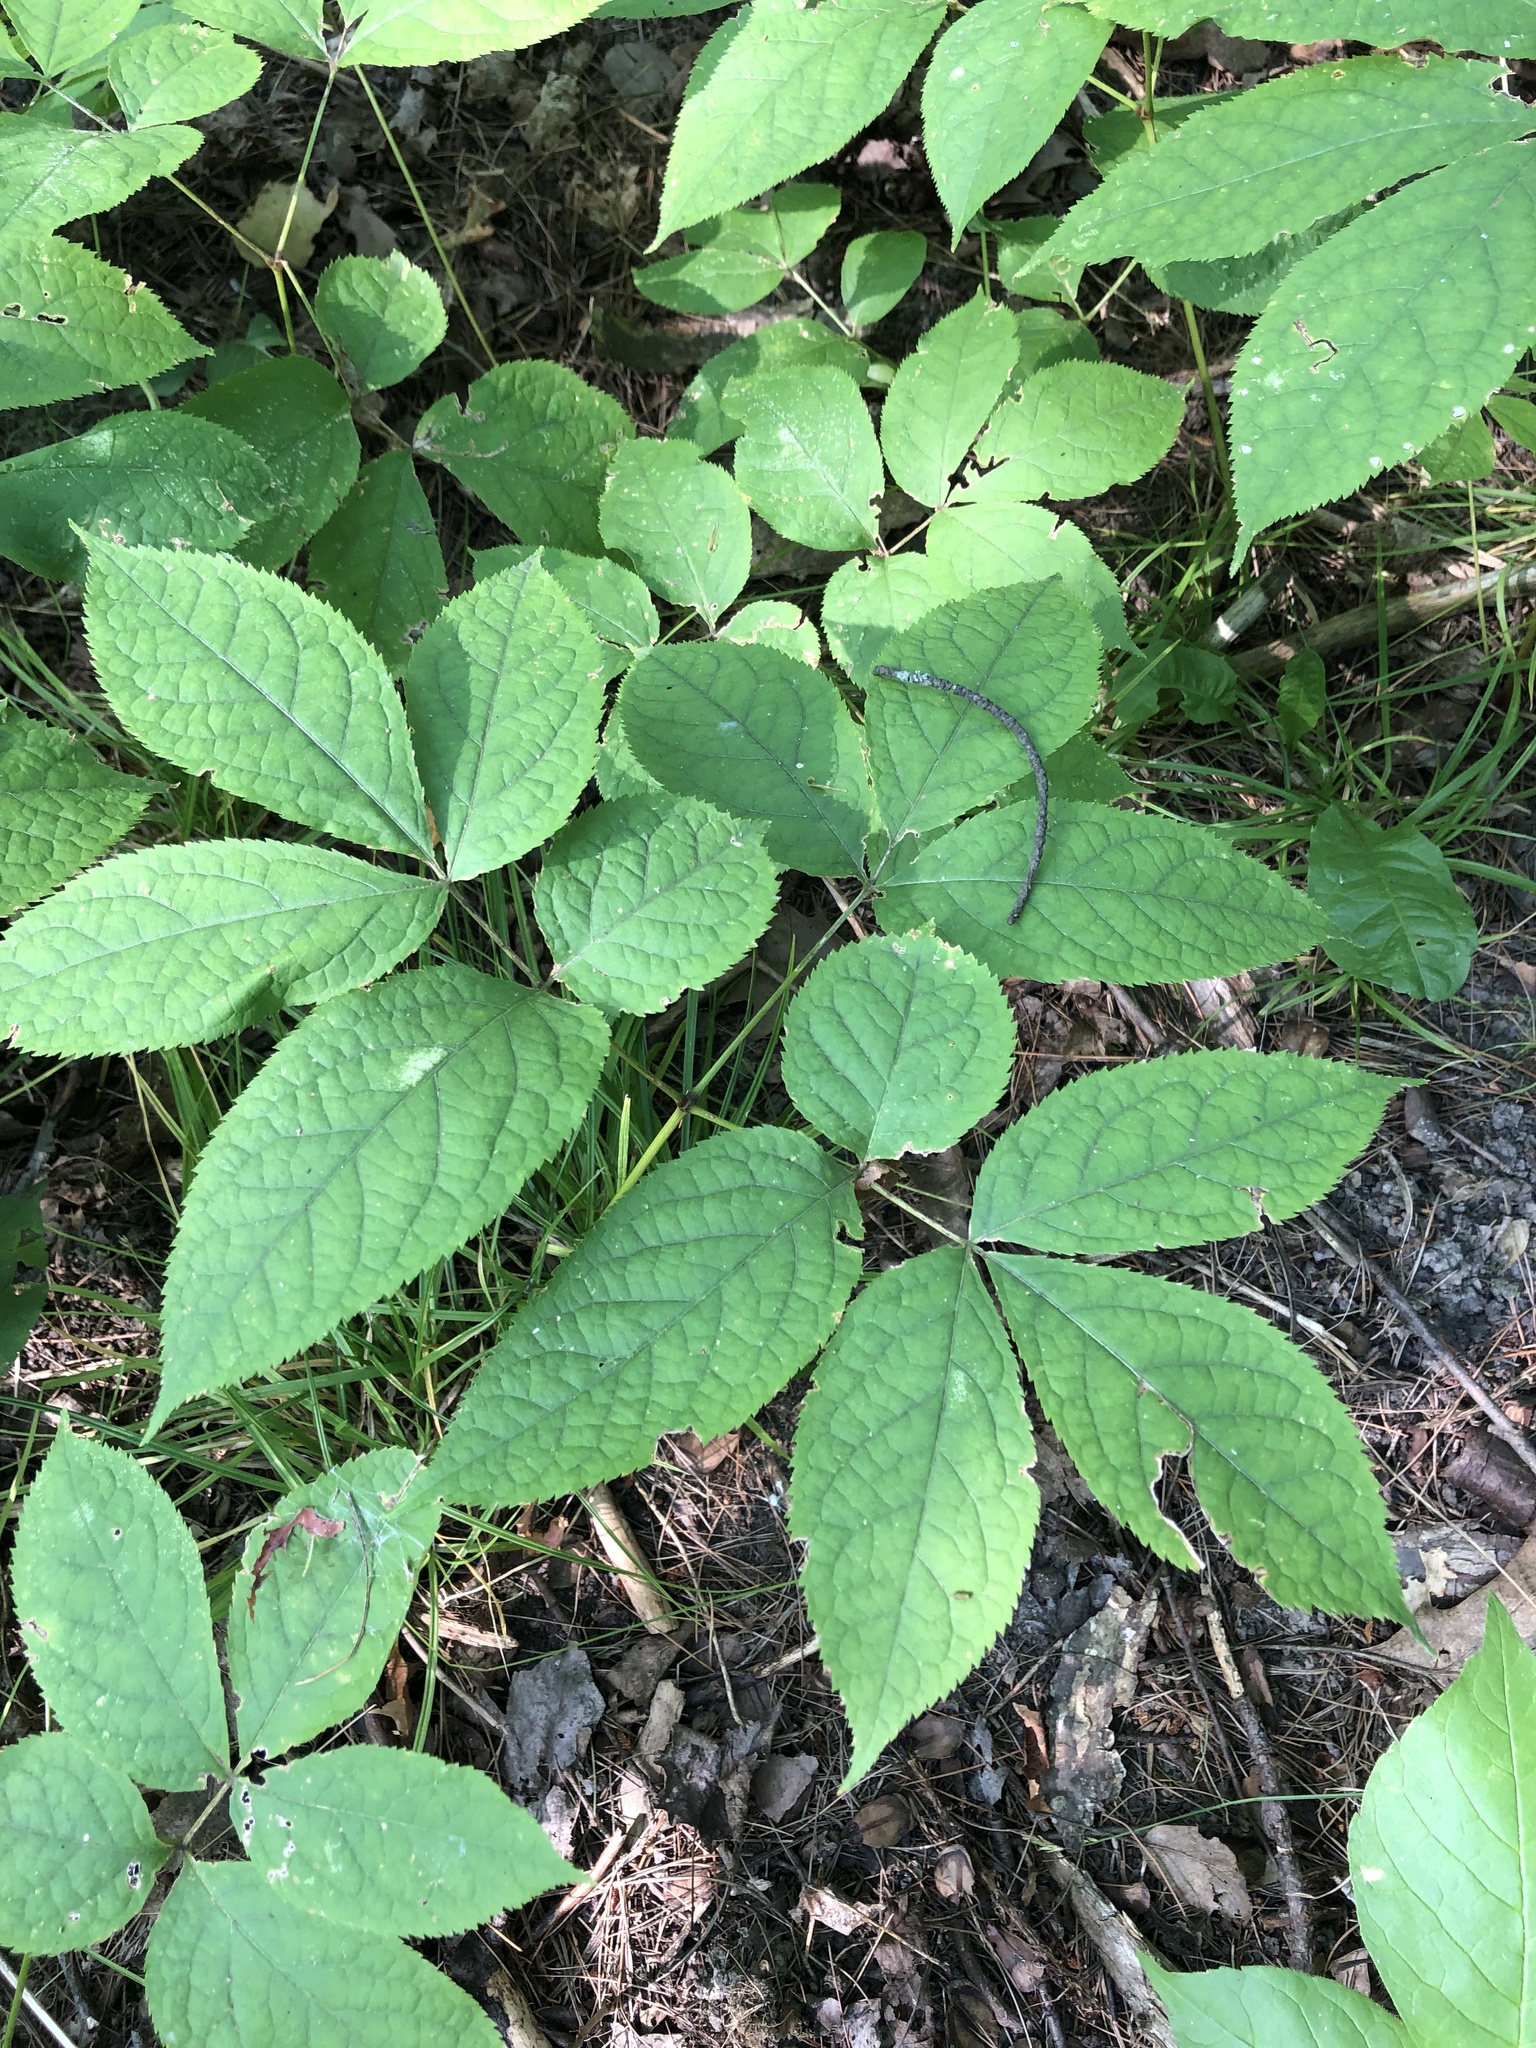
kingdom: Plantae
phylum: Tracheophyta
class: Magnoliopsida
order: Apiales
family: Araliaceae
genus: Aralia
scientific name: Aralia nudicaulis
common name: Wild sarsaparilla
